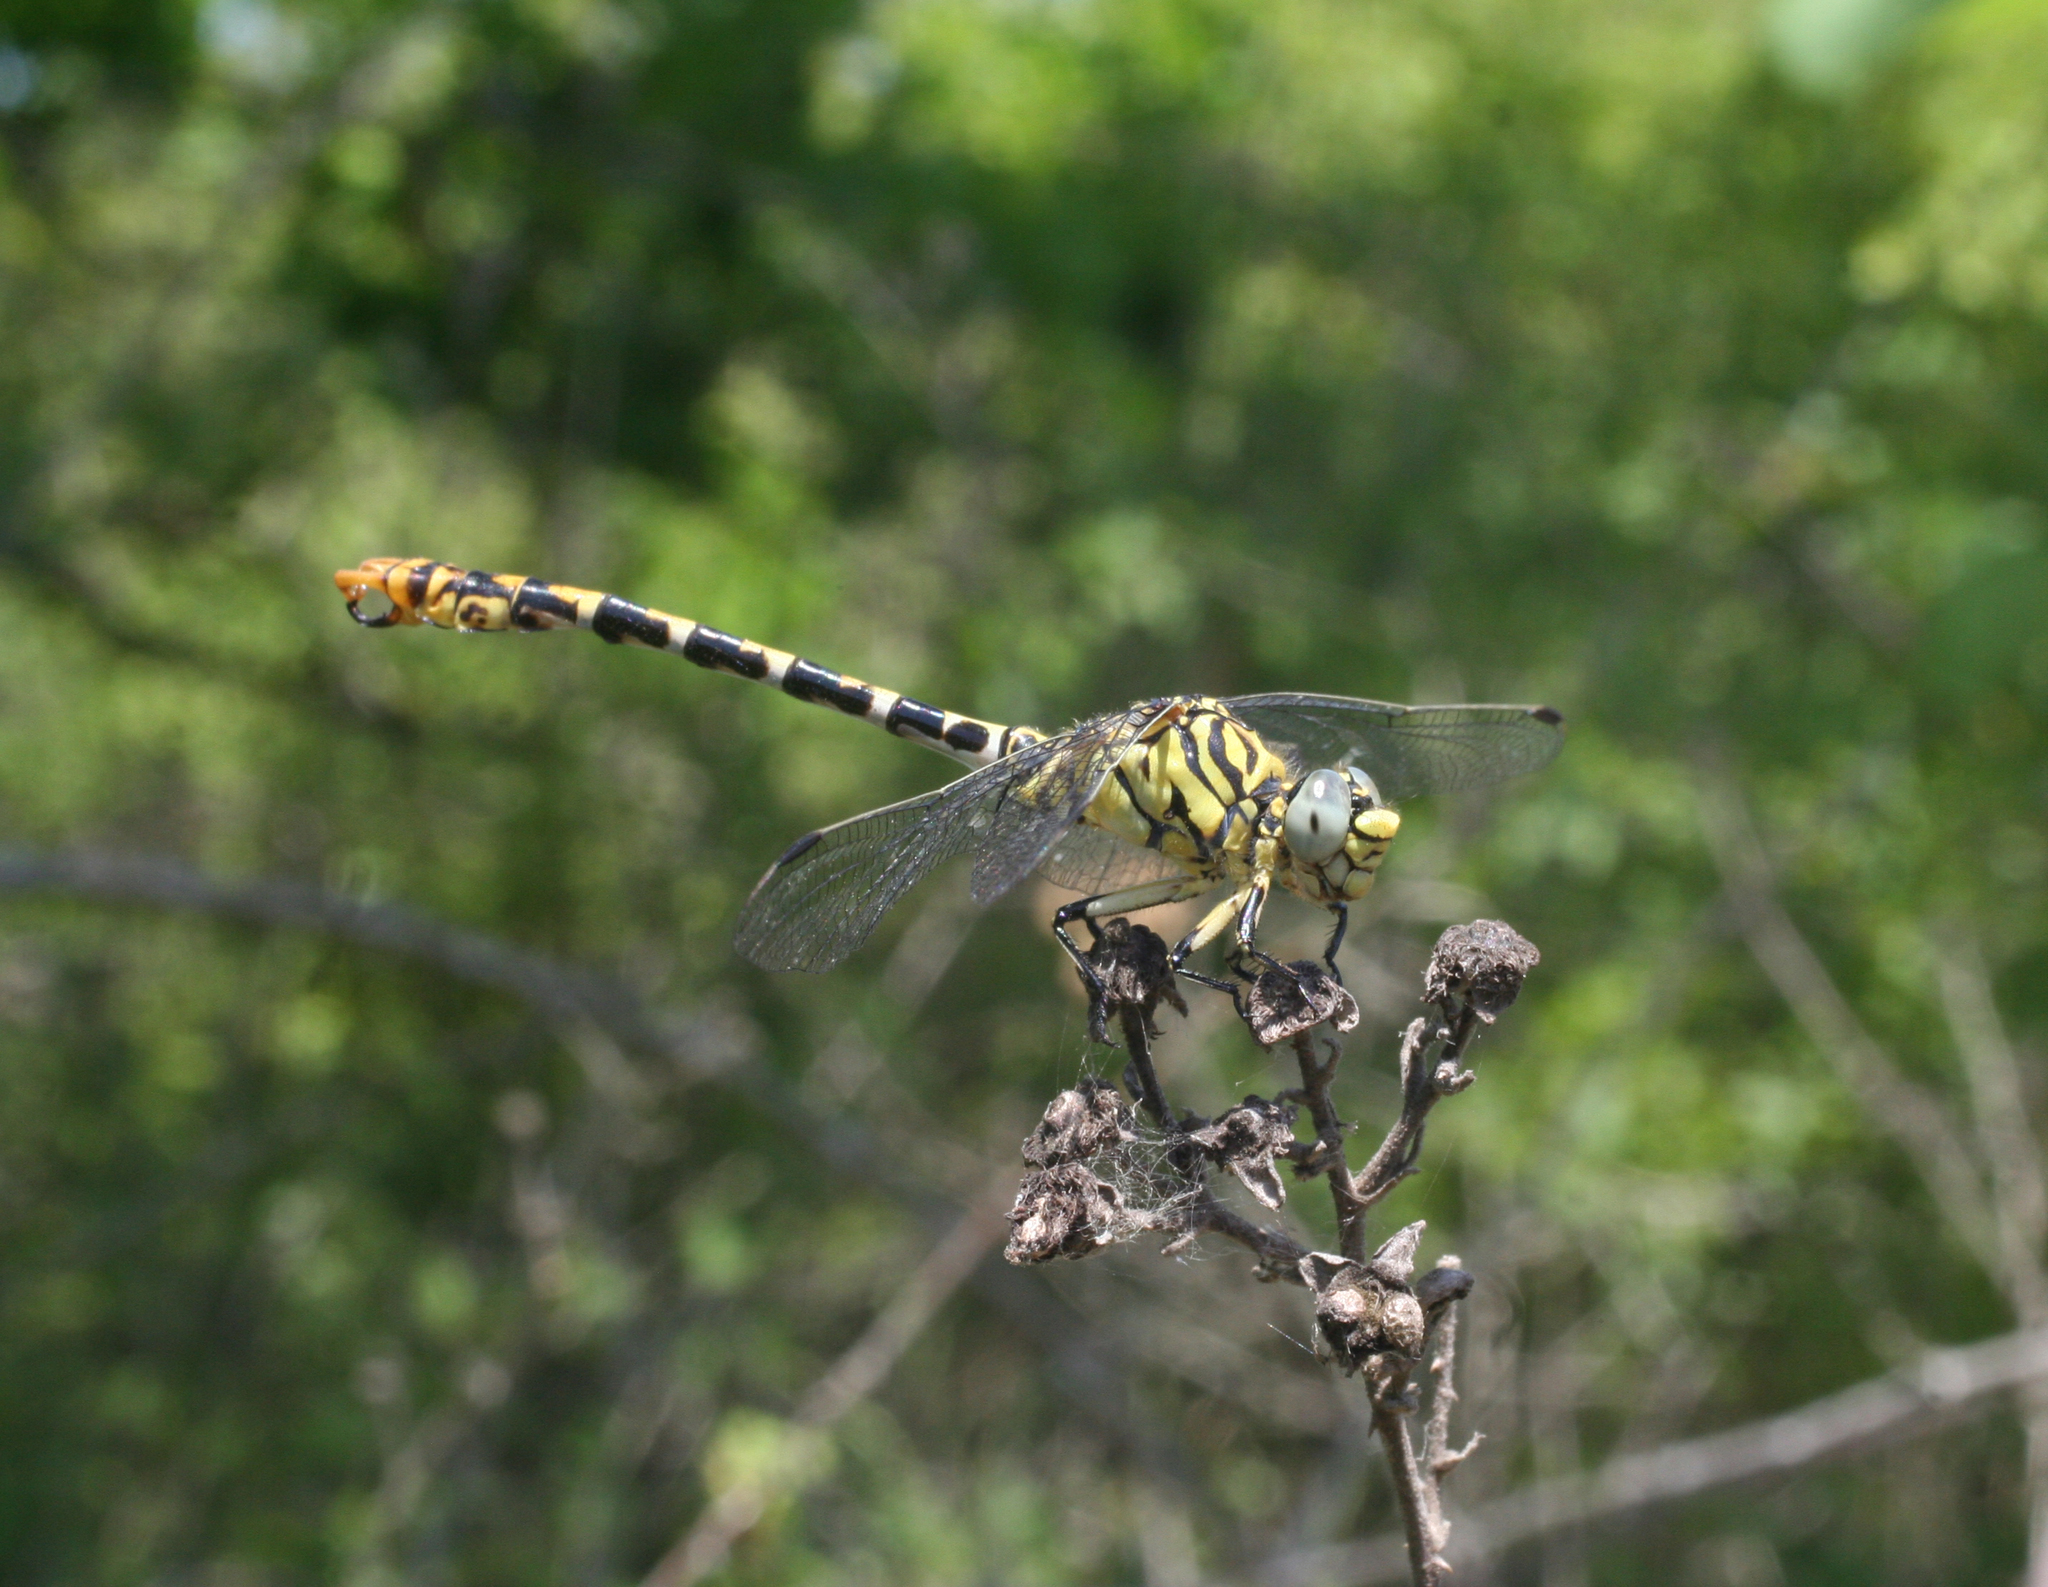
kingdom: Animalia
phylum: Arthropoda
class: Insecta
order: Odonata
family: Gomphidae
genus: Onychogomphus
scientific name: Onychogomphus forcipatus
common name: Small pincertail
